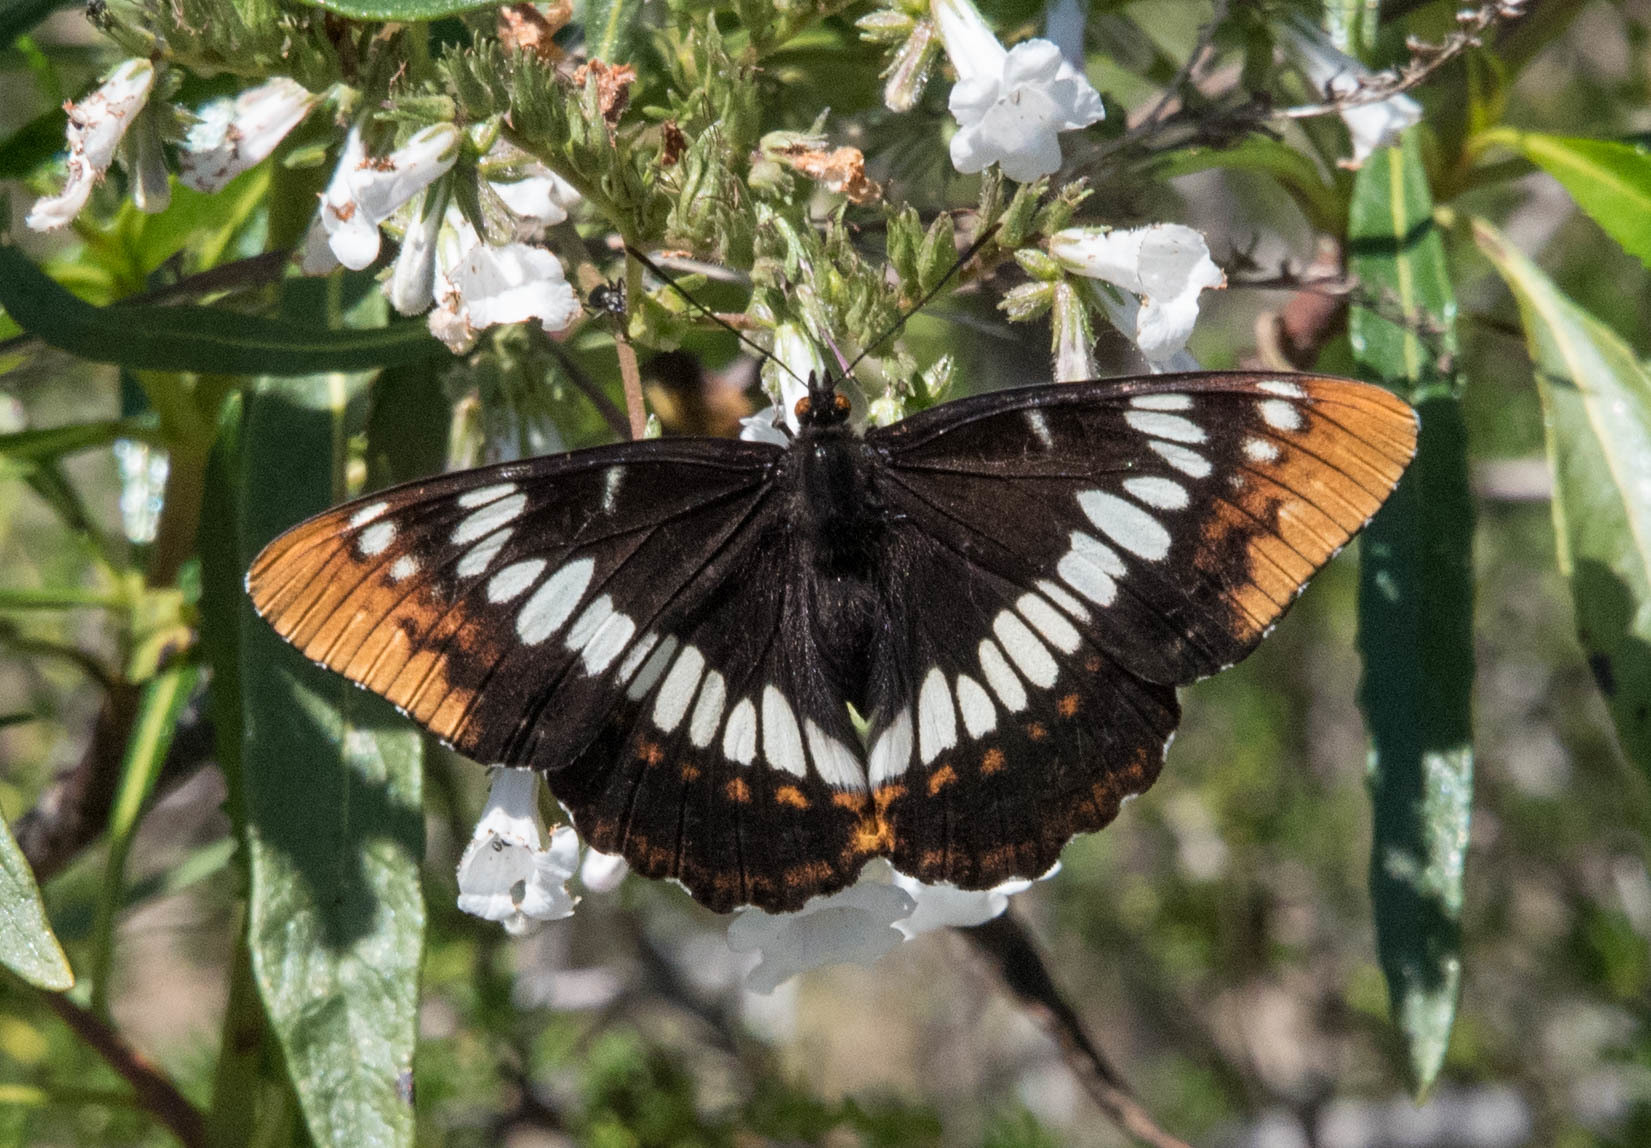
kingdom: Animalia
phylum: Arthropoda
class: Insecta
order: Lepidoptera
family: Nymphalidae
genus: Limenitis
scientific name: Limenitis lorquini
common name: Lorquin's admiral
